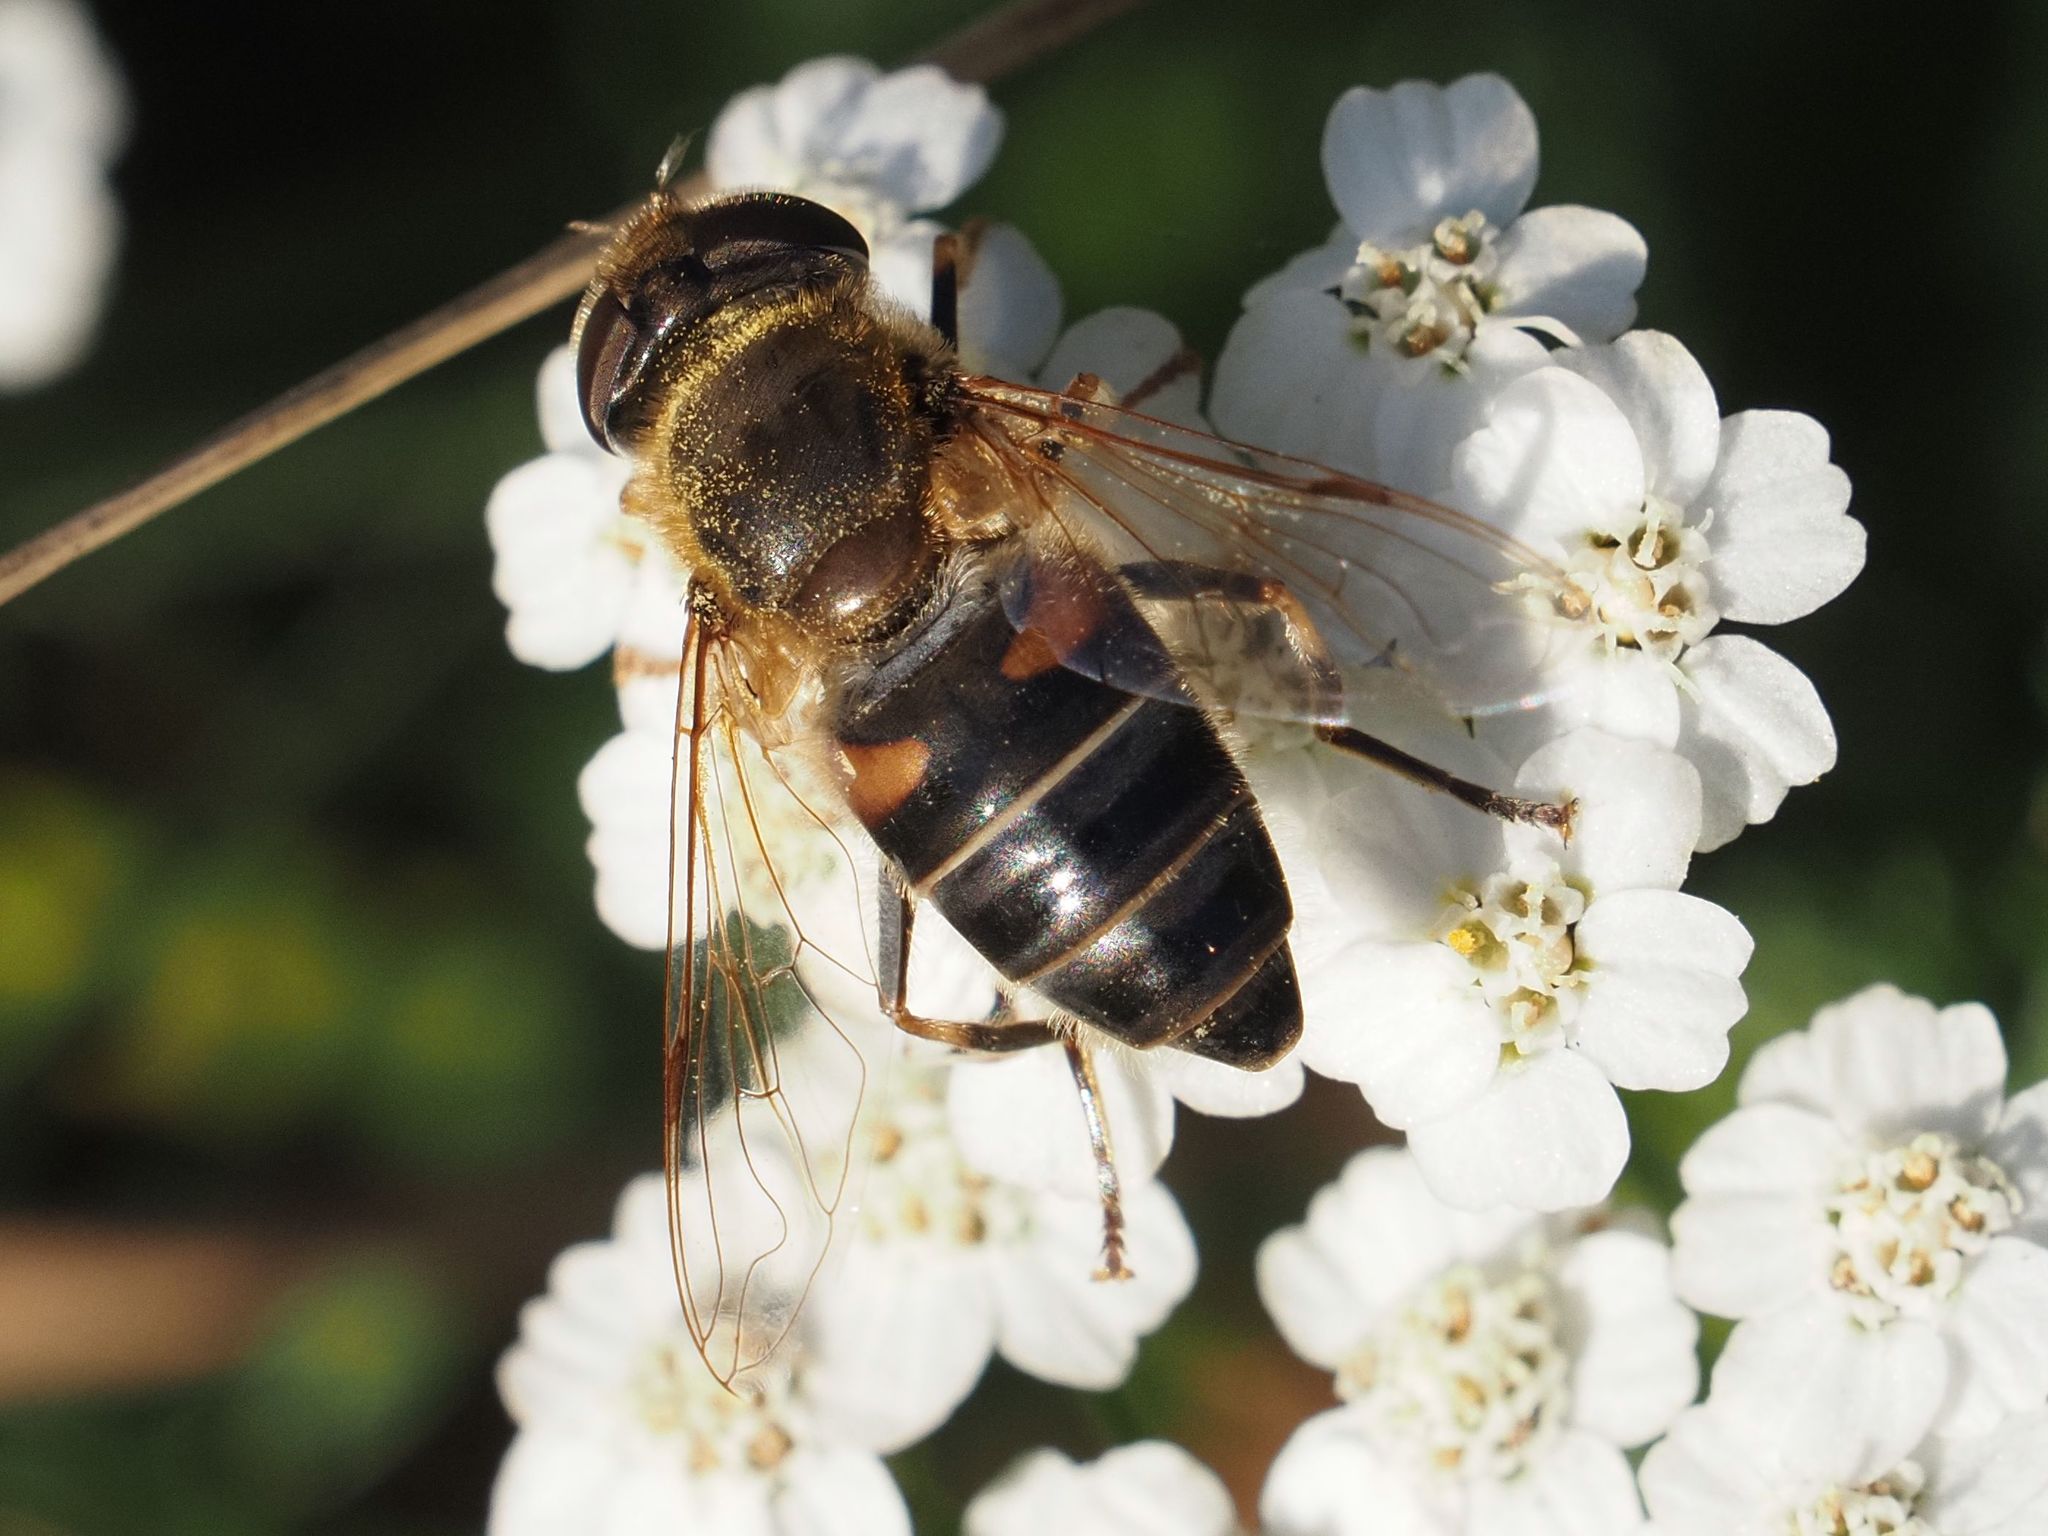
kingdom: Animalia
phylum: Arthropoda
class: Insecta
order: Diptera
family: Syrphidae
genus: Eristalis
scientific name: Eristalis pertinax
